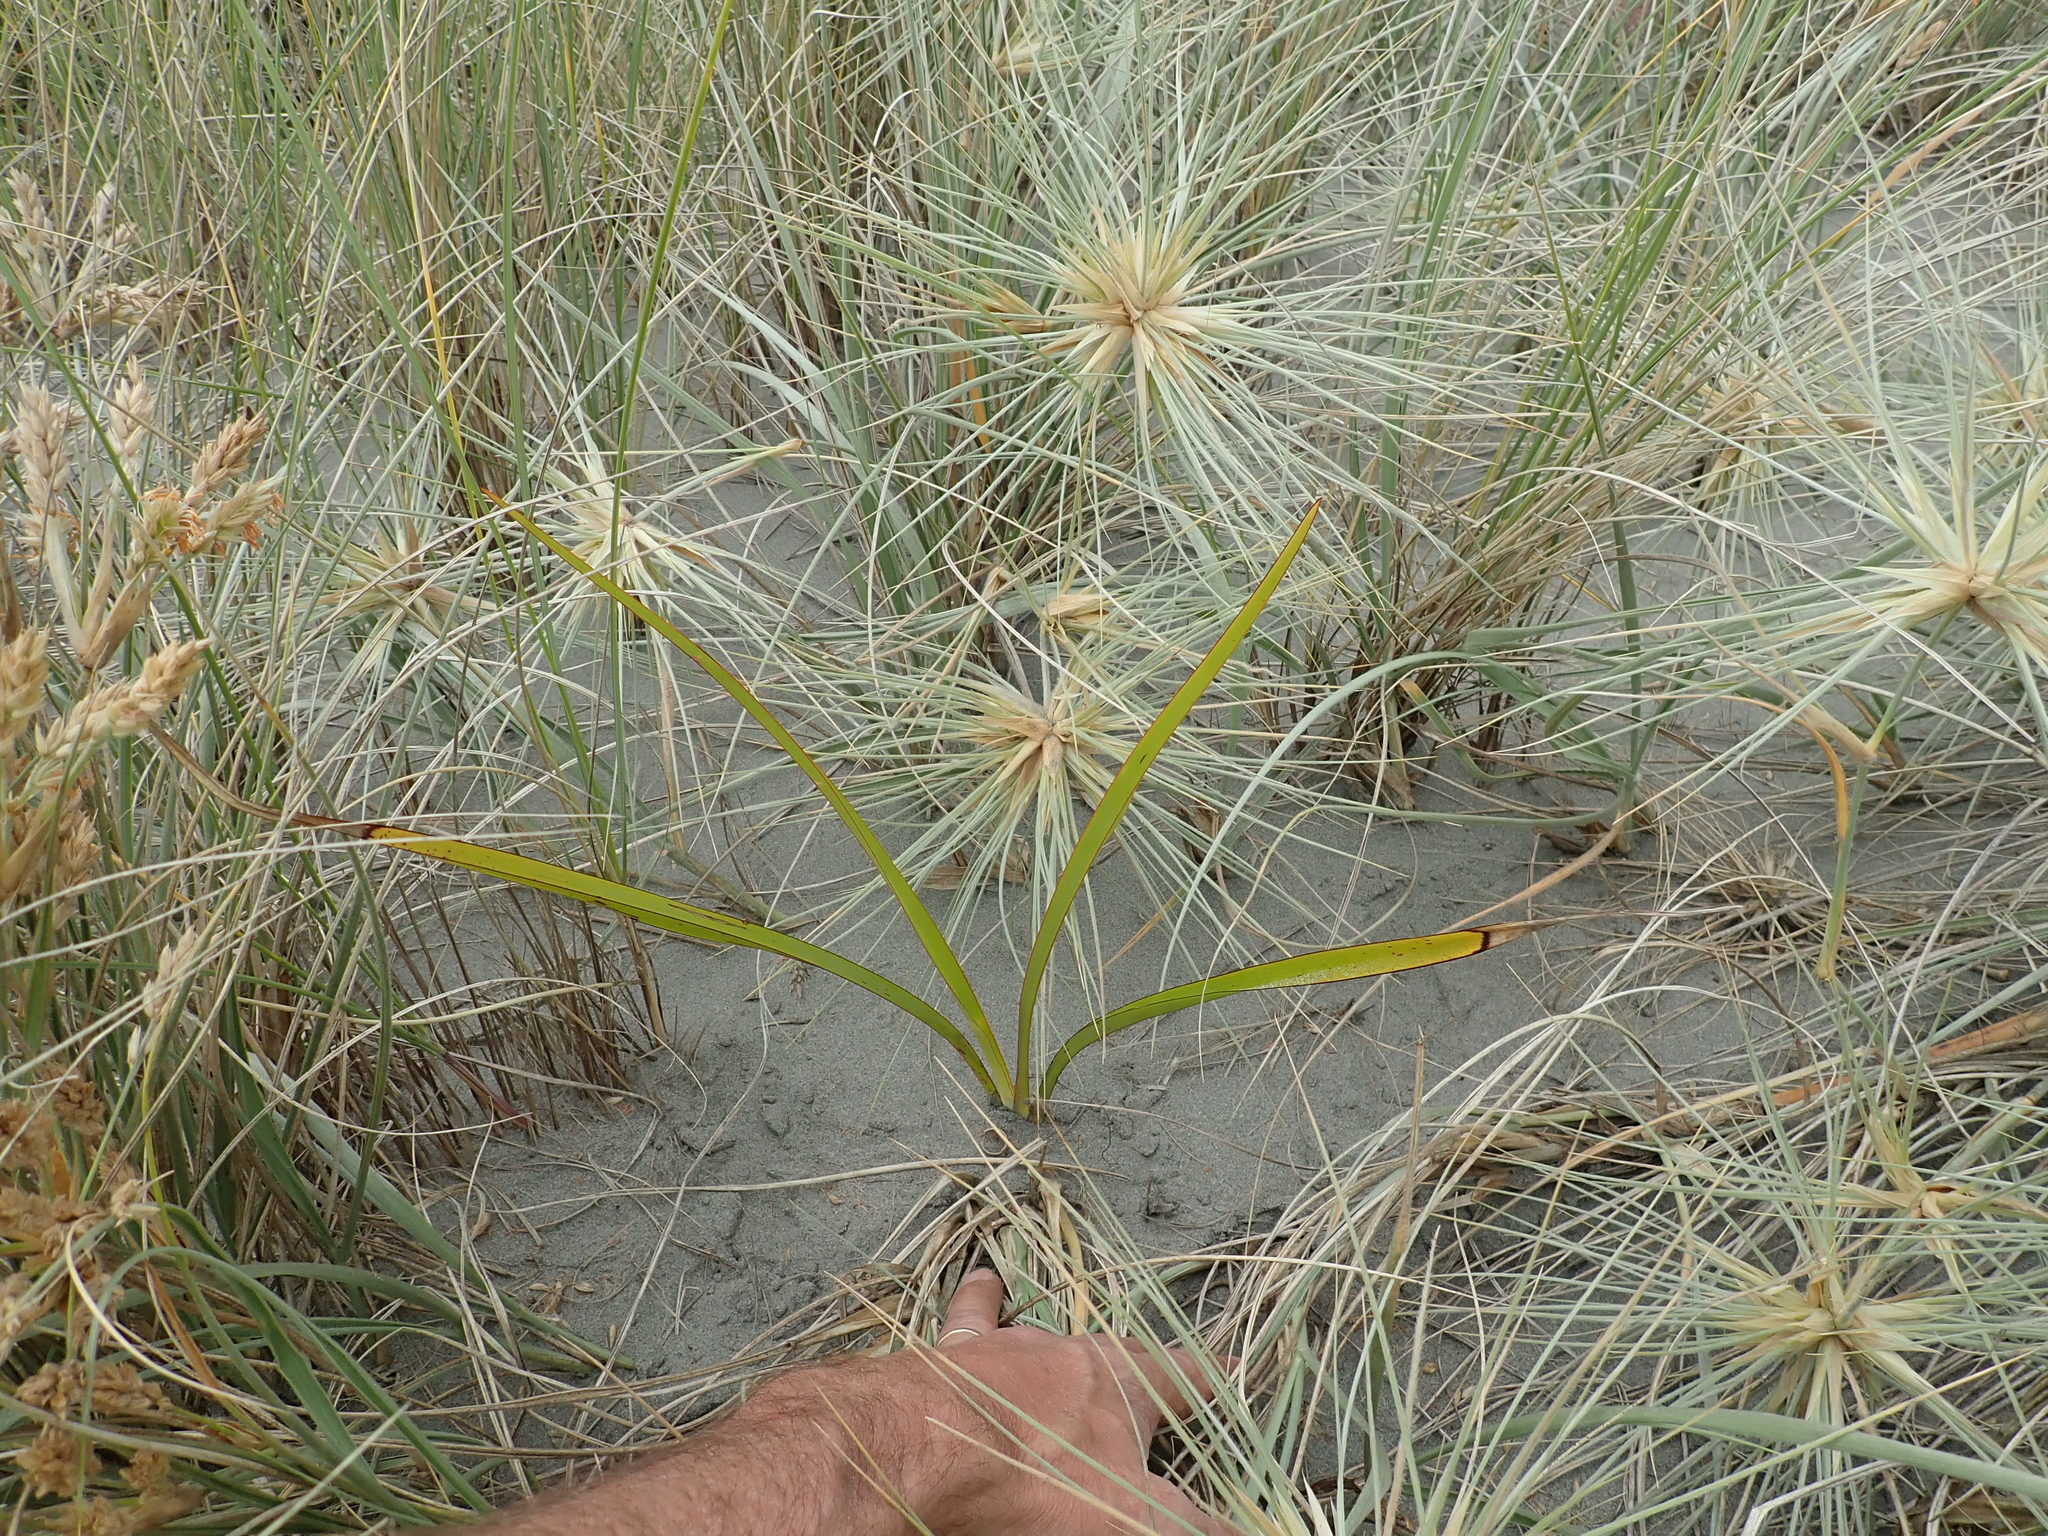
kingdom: Plantae
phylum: Tracheophyta
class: Liliopsida
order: Asparagales
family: Asphodelaceae
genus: Phormium
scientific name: Phormium tenax
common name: New zealand flax
